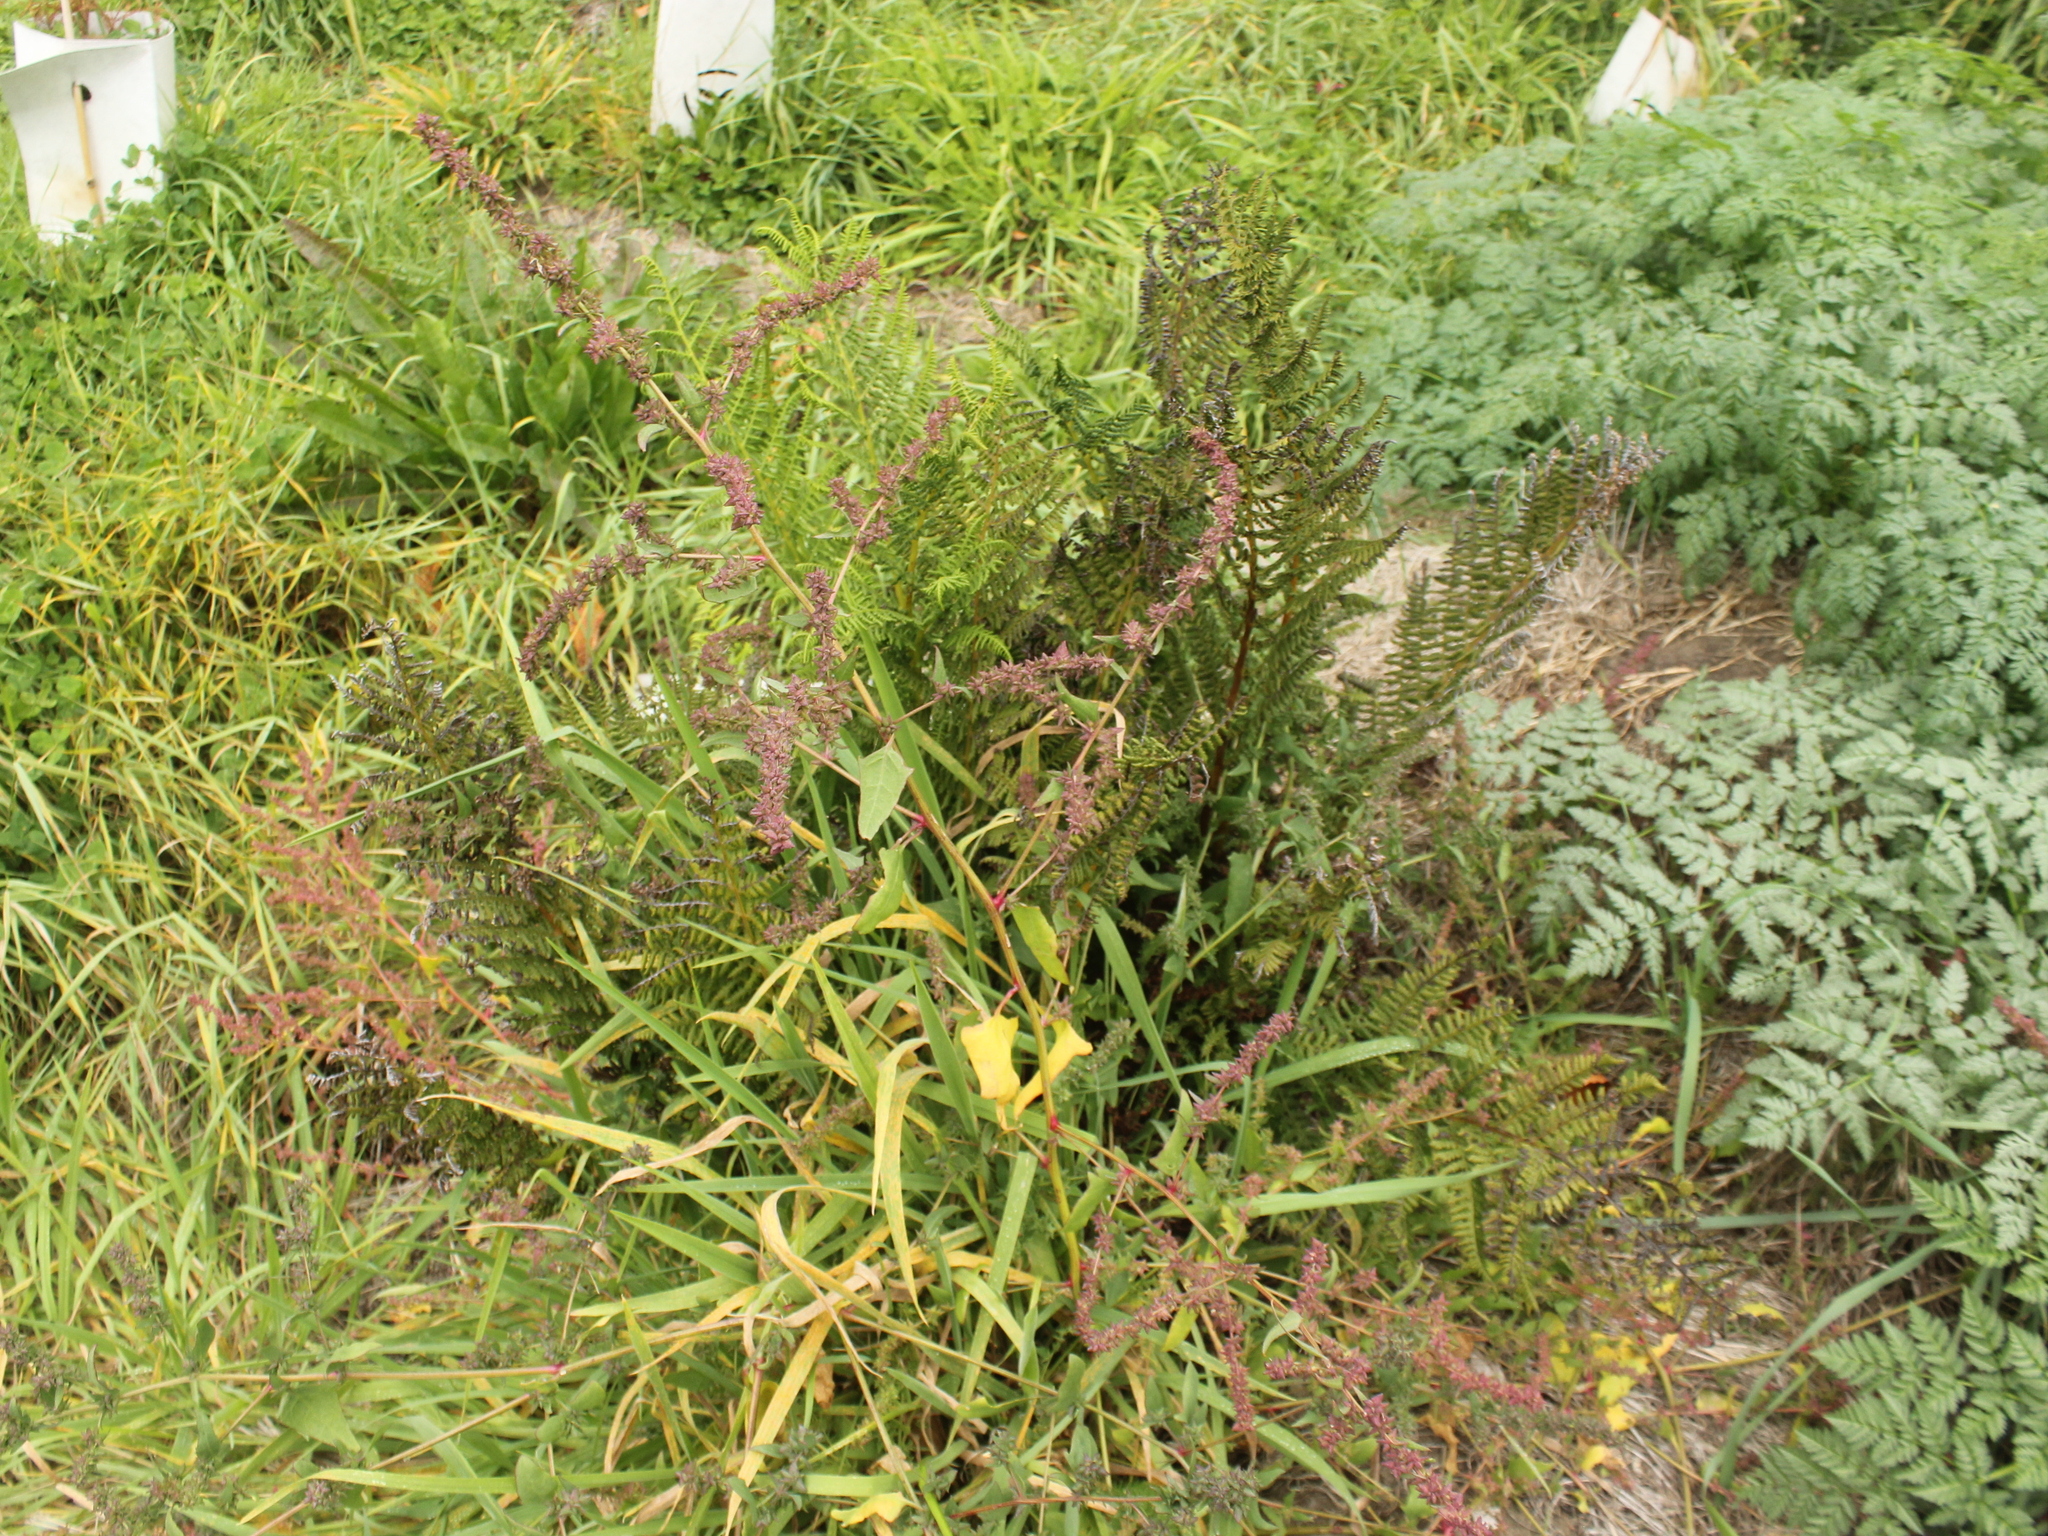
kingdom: Plantae
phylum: Tracheophyta
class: Magnoliopsida
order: Caryophyllales
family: Amaranthaceae
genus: Atriplex
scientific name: Atriplex prostrata
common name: Spear-leaved orache
